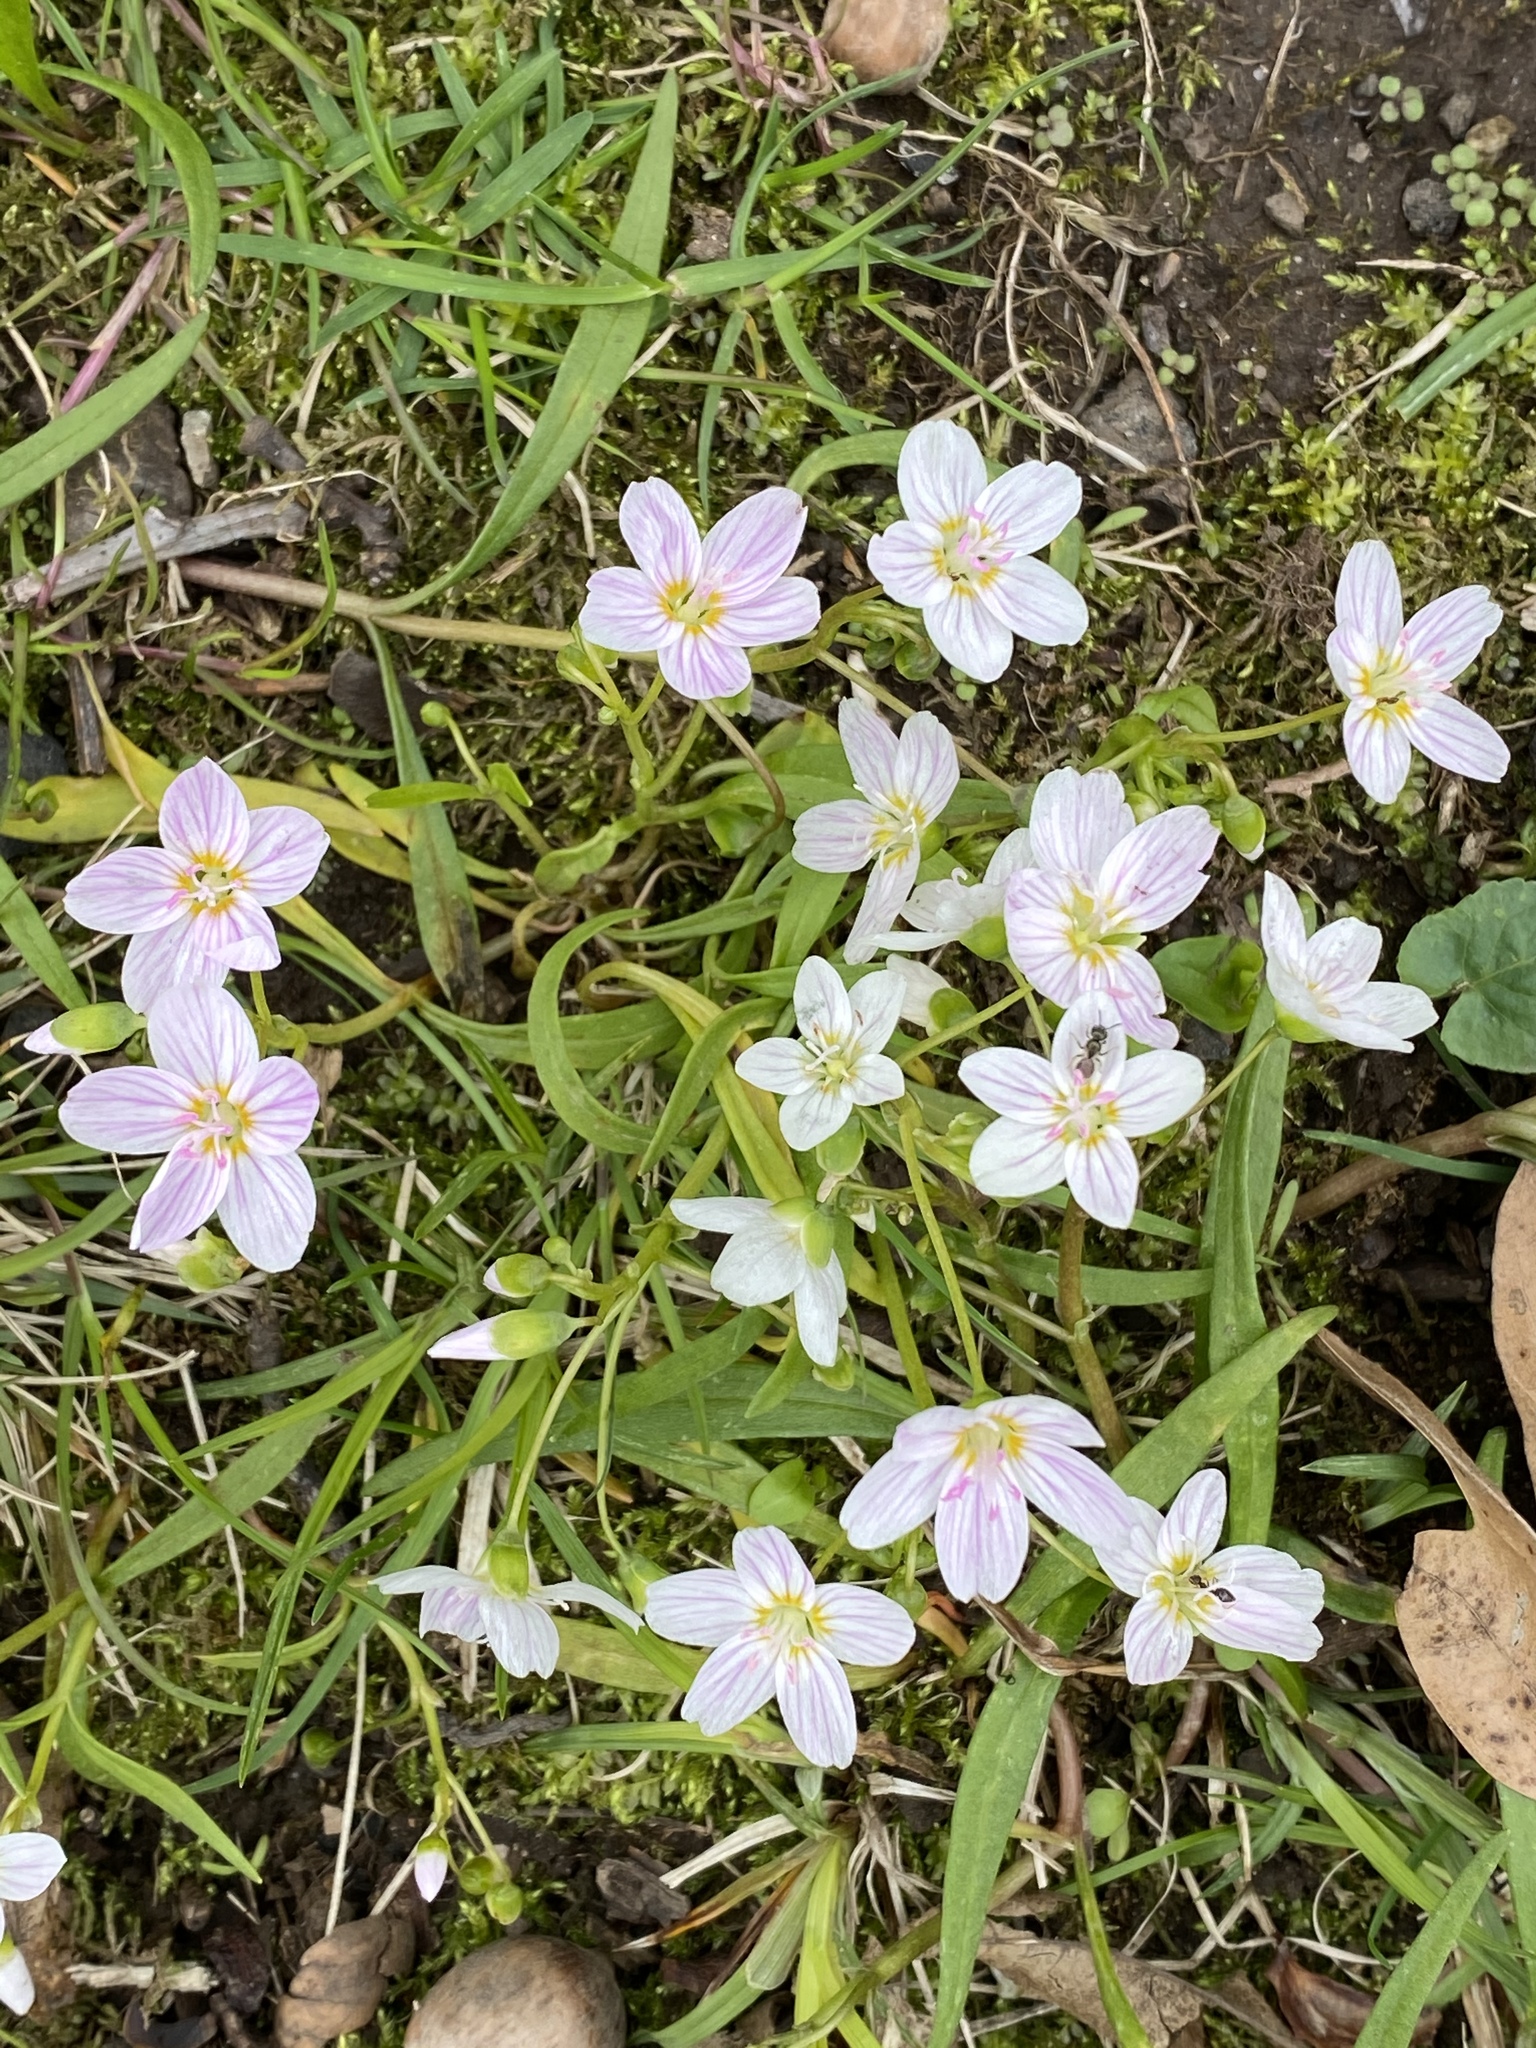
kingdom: Plantae
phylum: Tracheophyta
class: Magnoliopsida
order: Caryophyllales
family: Montiaceae
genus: Claytonia
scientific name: Claytonia virginica
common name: Virginia springbeauty
